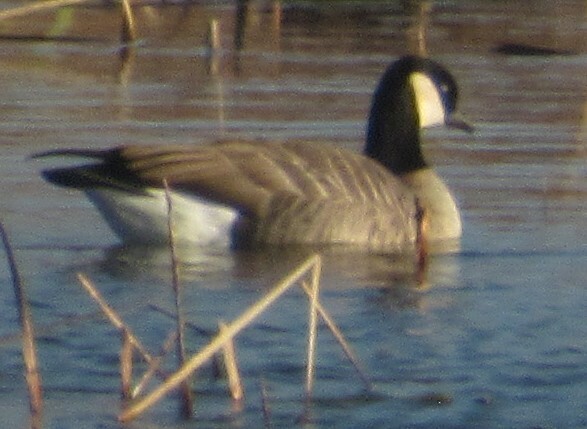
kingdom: Animalia
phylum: Chordata
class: Aves
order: Anseriformes
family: Anatidae
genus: Branta
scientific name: Branta hutchinsii
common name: Cackling goose
